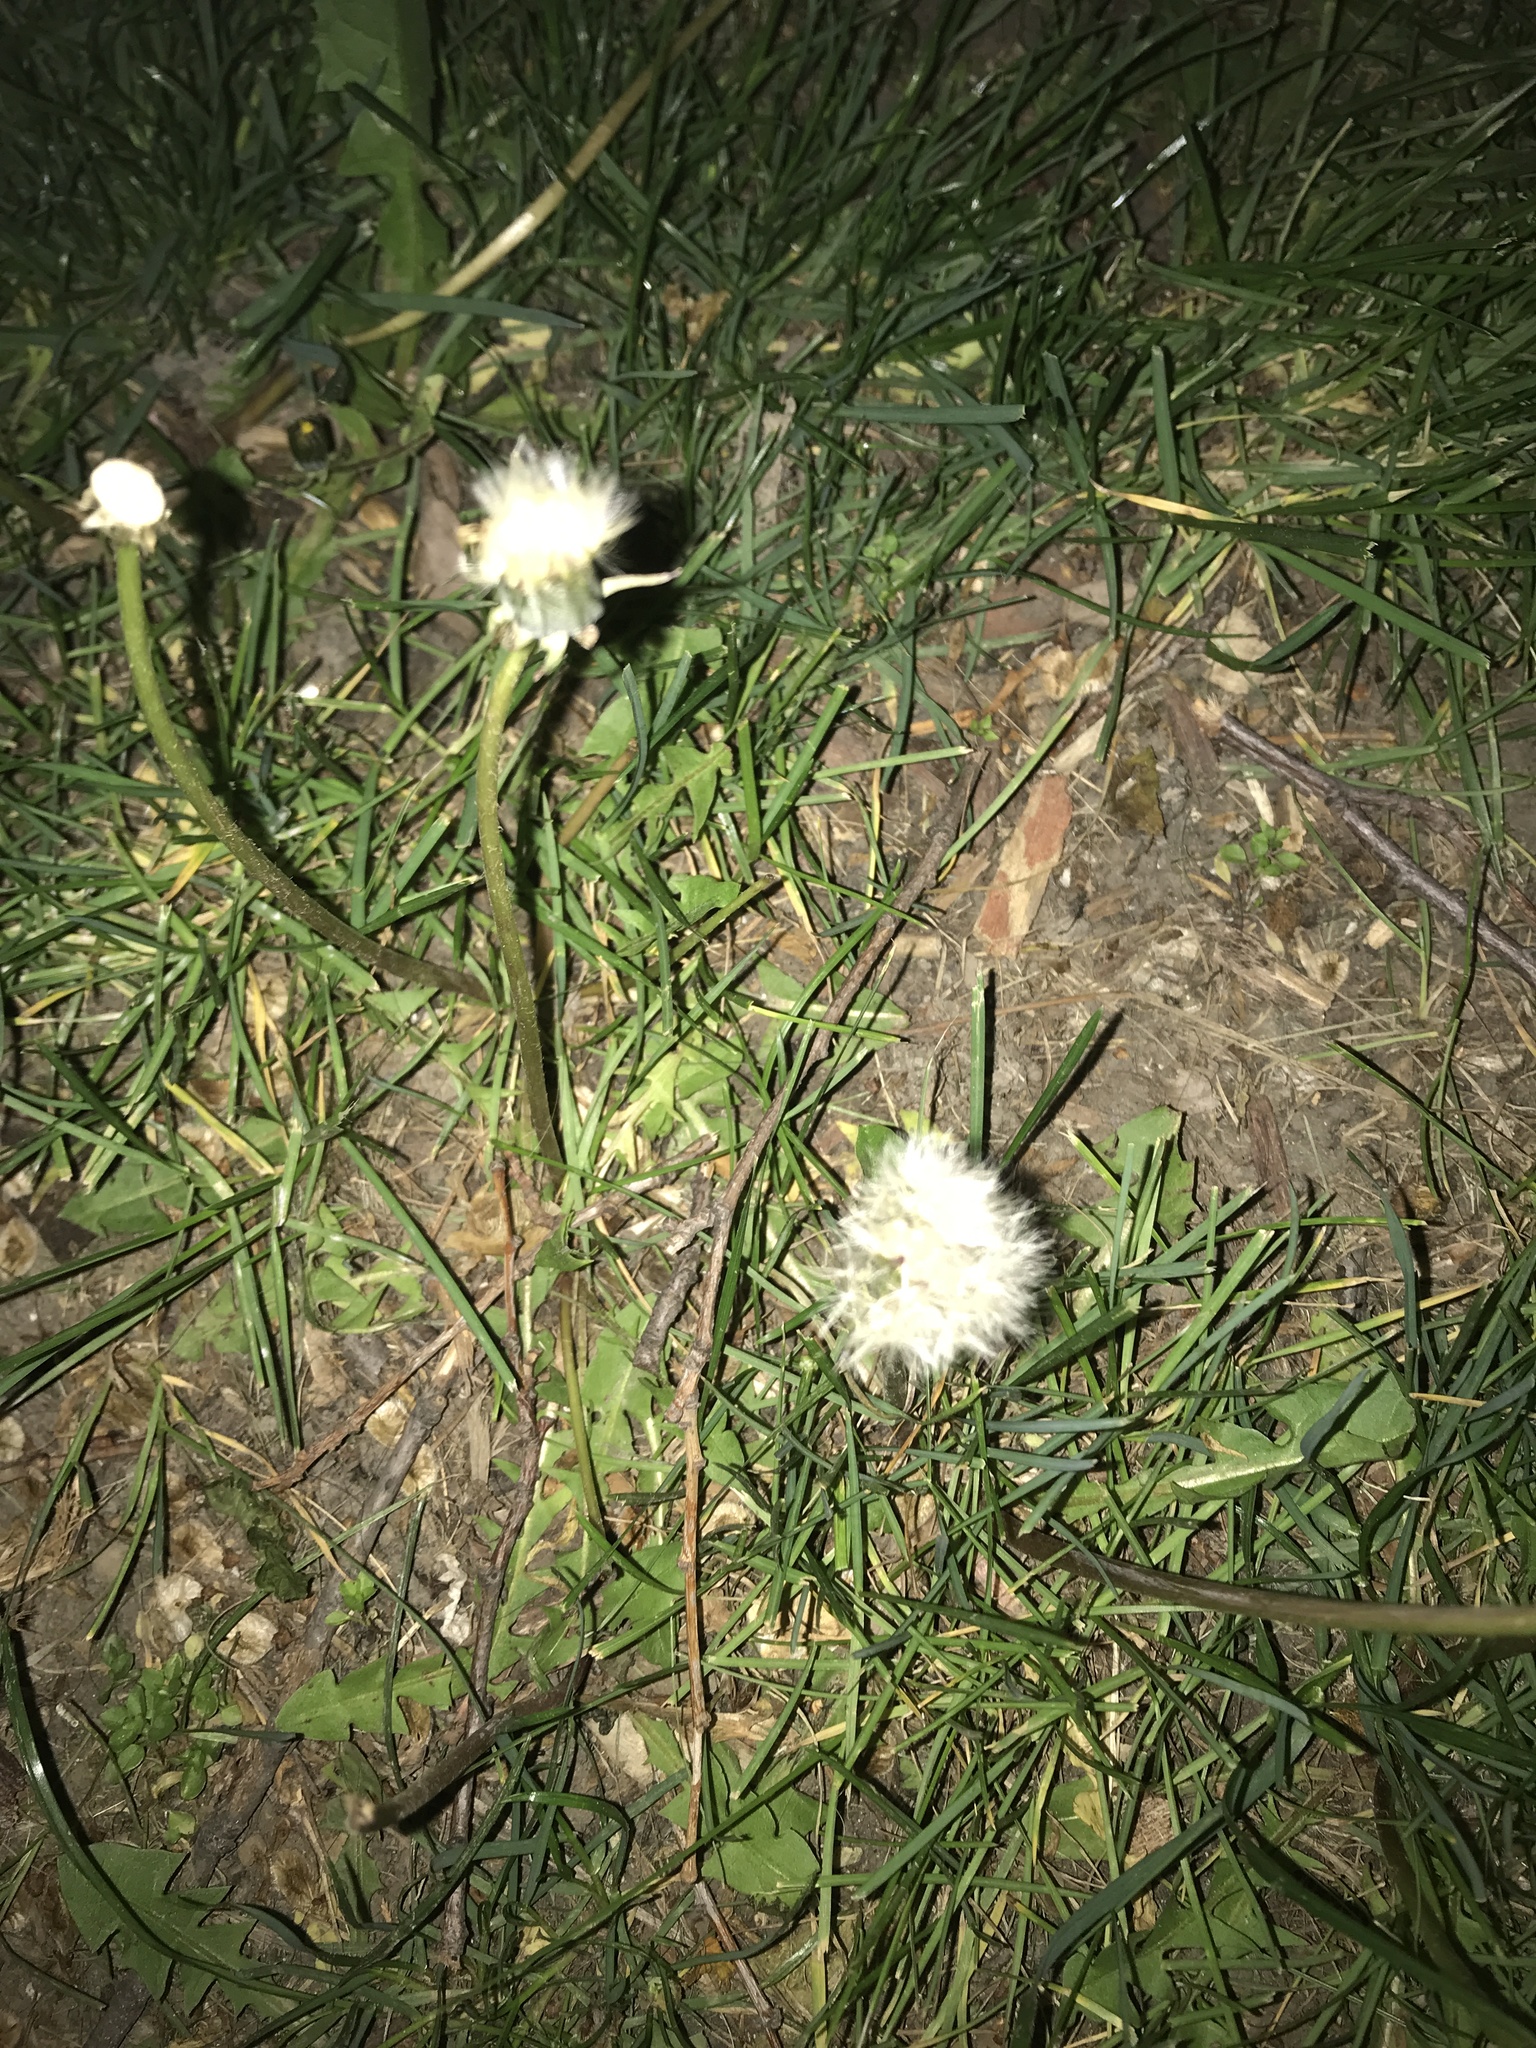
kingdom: Plantae
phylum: Tracheophyta
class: Magnoliopsida
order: Asterales
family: Asteraceae
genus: Taraxacum
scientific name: Taraxacum officinale
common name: Common dandelion
